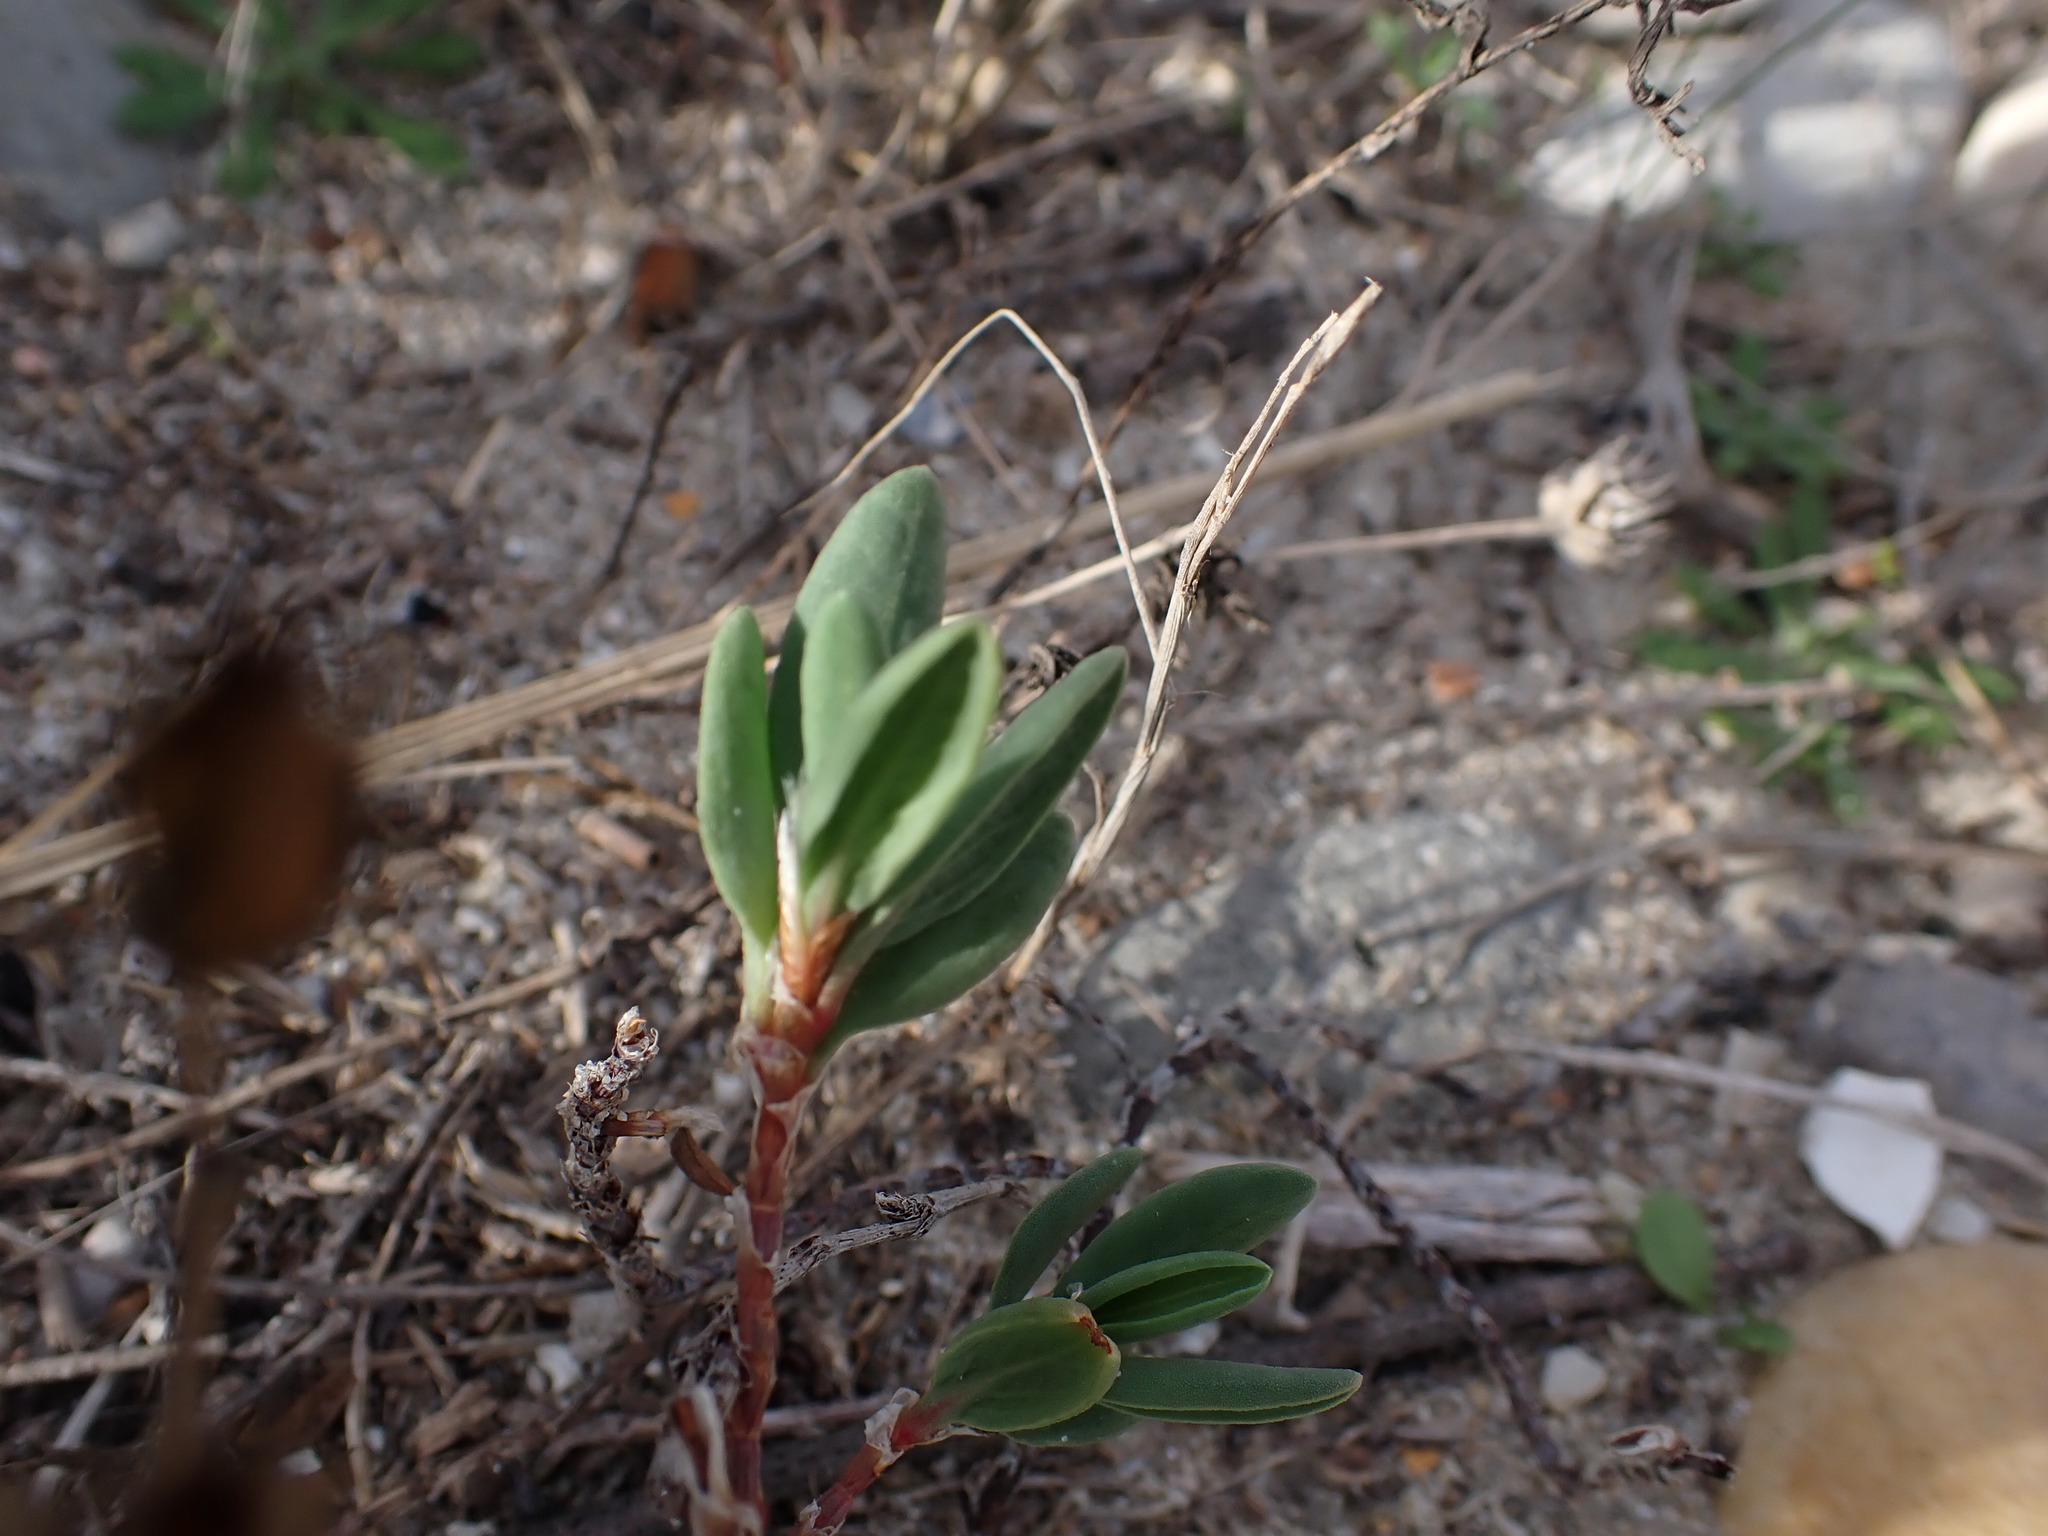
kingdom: Plantae
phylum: Tracheophyta
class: Magnoliopsida
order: Caryophyllales
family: Polygonaceae
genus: Polygonum
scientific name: Polygonum maritimum
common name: Sea knotgrass
